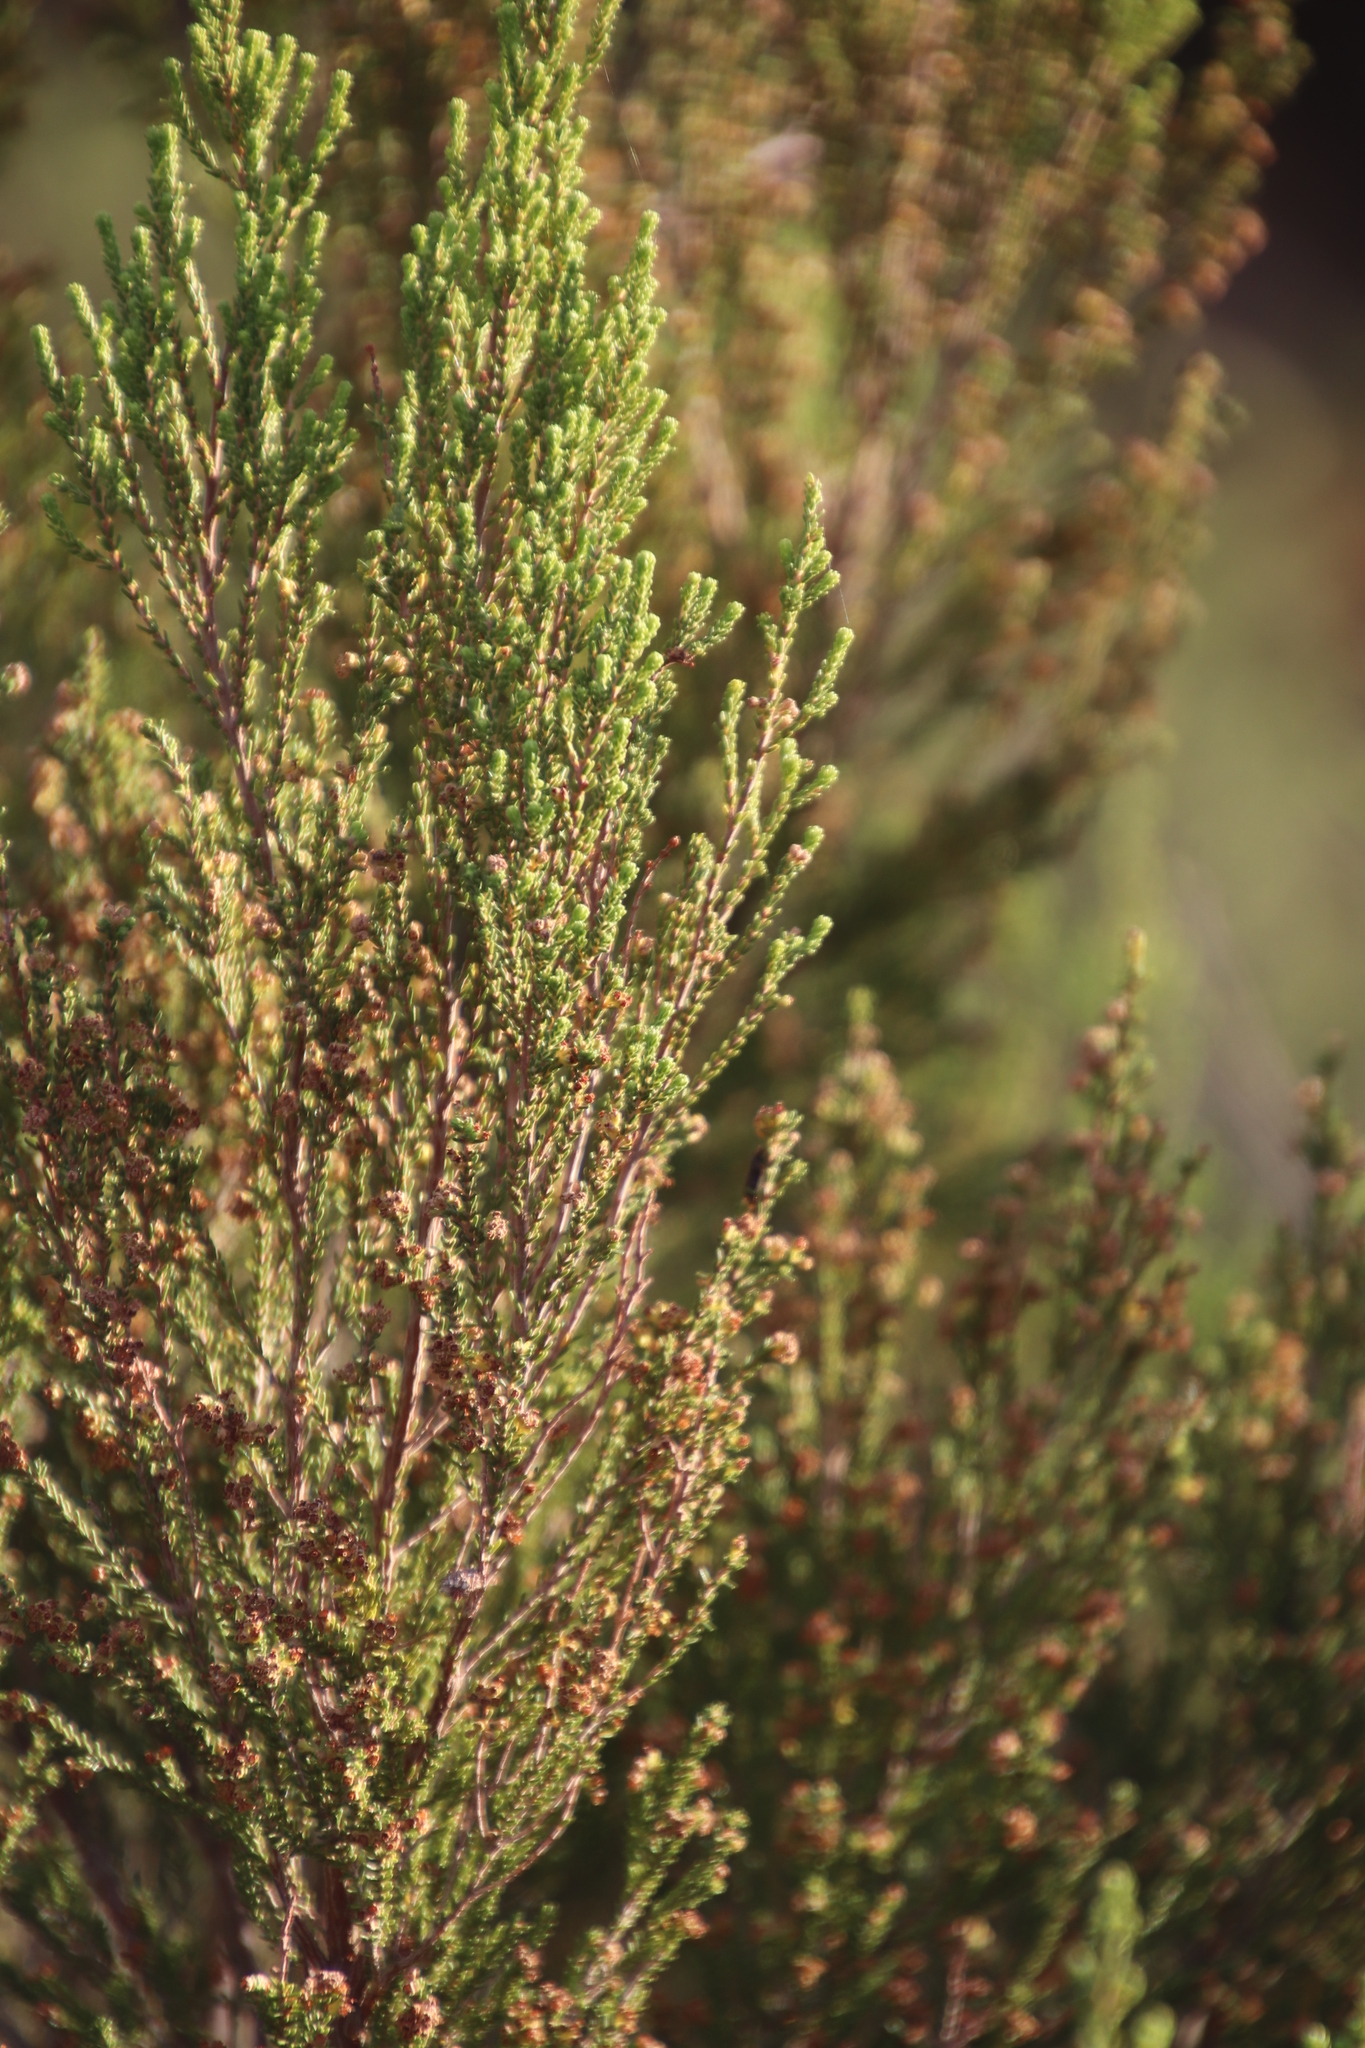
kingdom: Plantae
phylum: Tracheophyta
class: Magnoliopsida
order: Ericales
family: Ericaceae
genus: Erica
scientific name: Erica tristis
